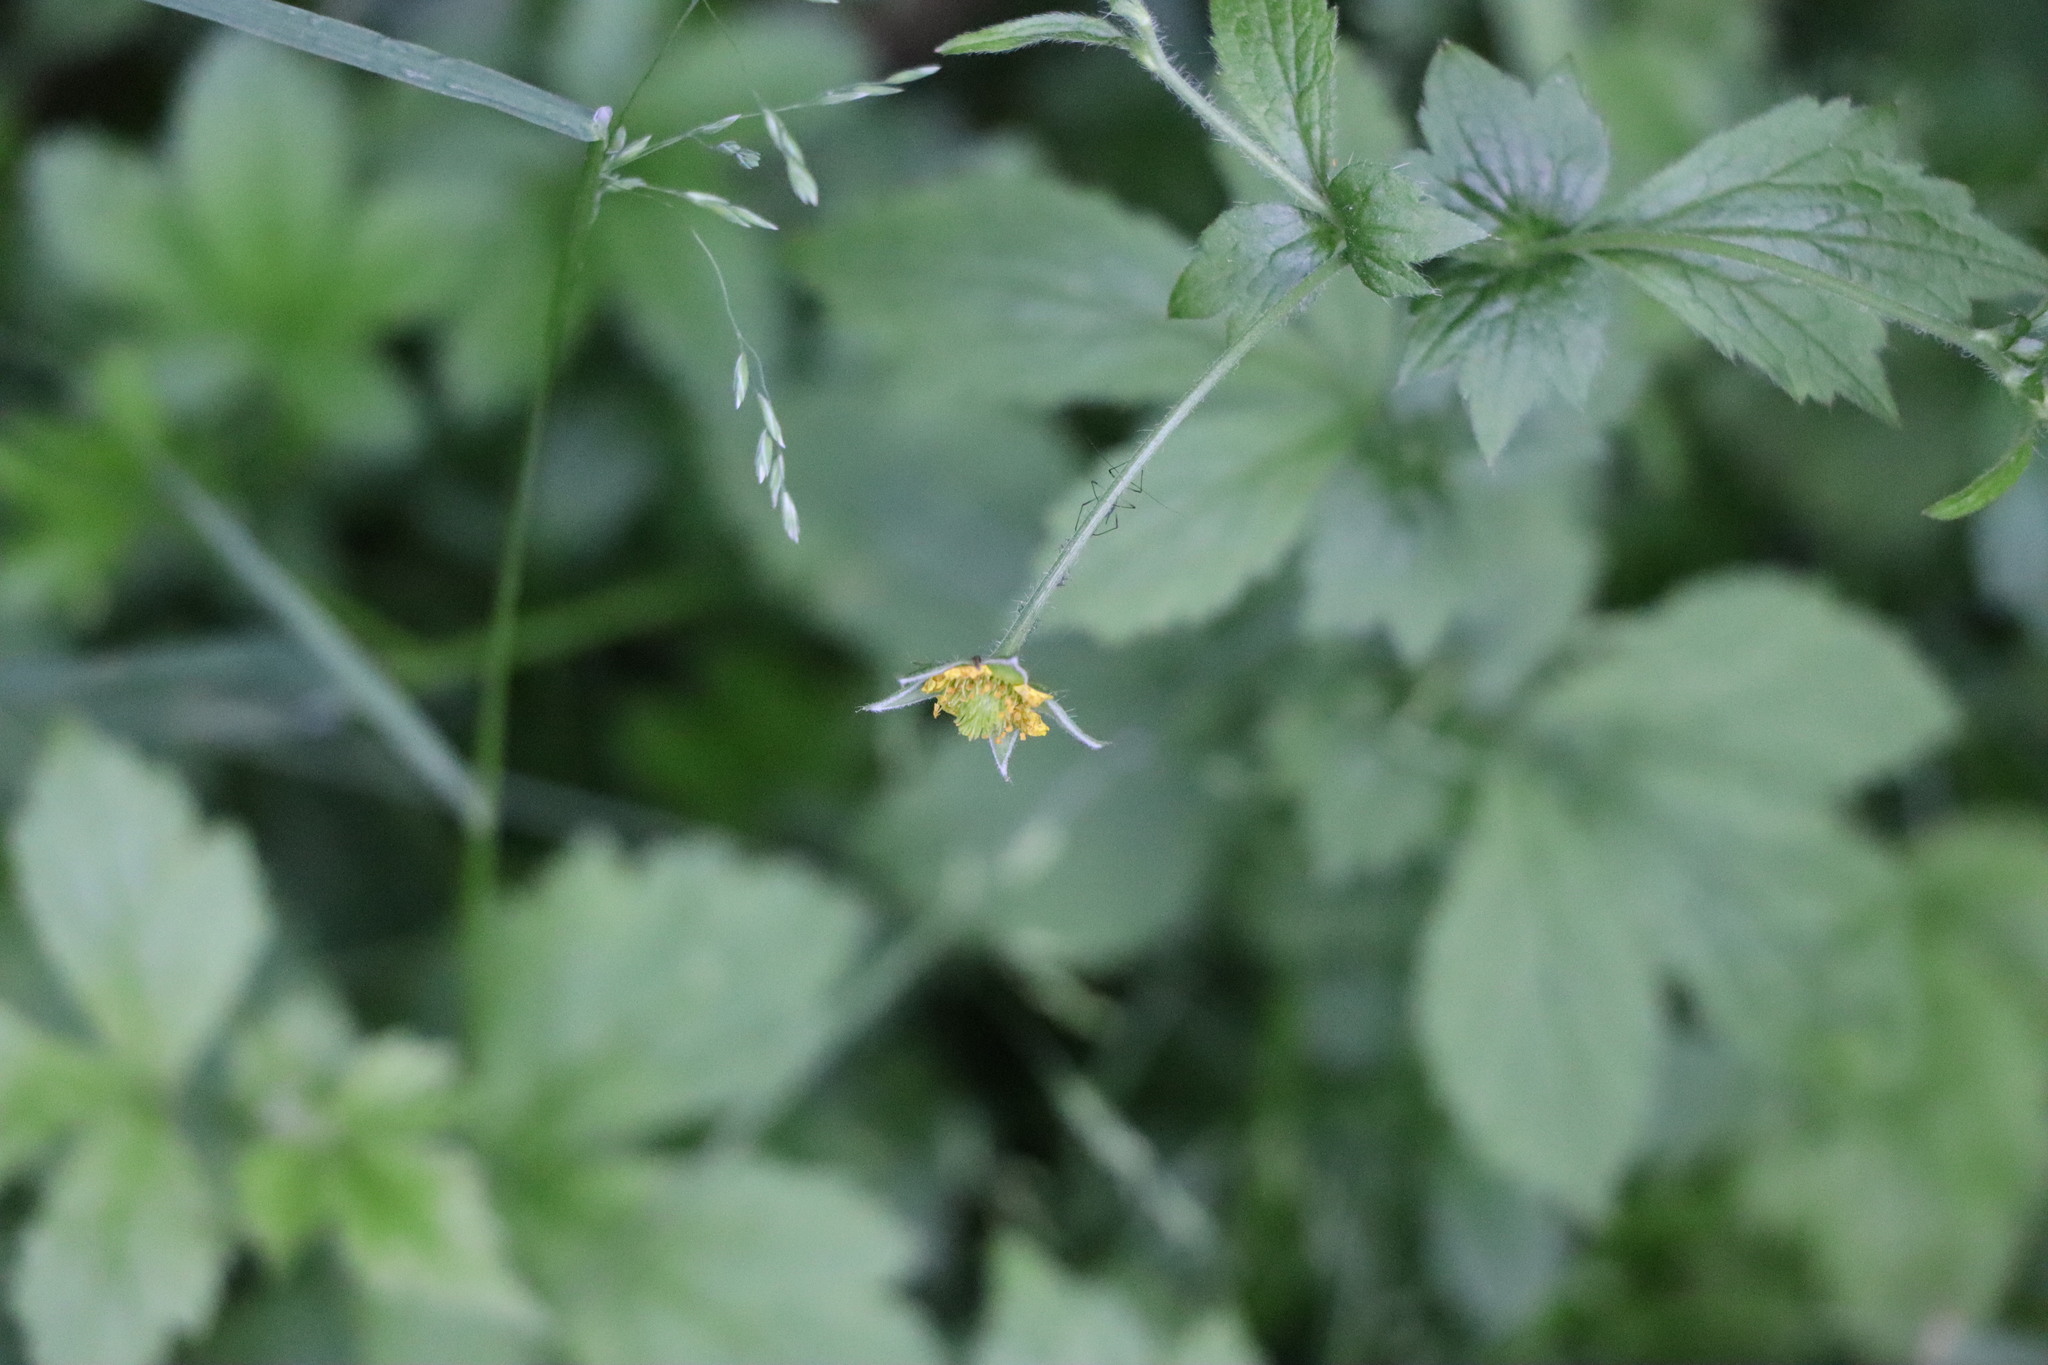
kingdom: Plantae
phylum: Tracheophyta
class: Magnoliopsida
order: Rosales
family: Rosaceae
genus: Potentilla
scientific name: Potentilla reptans
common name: Creeping cinquefoil
